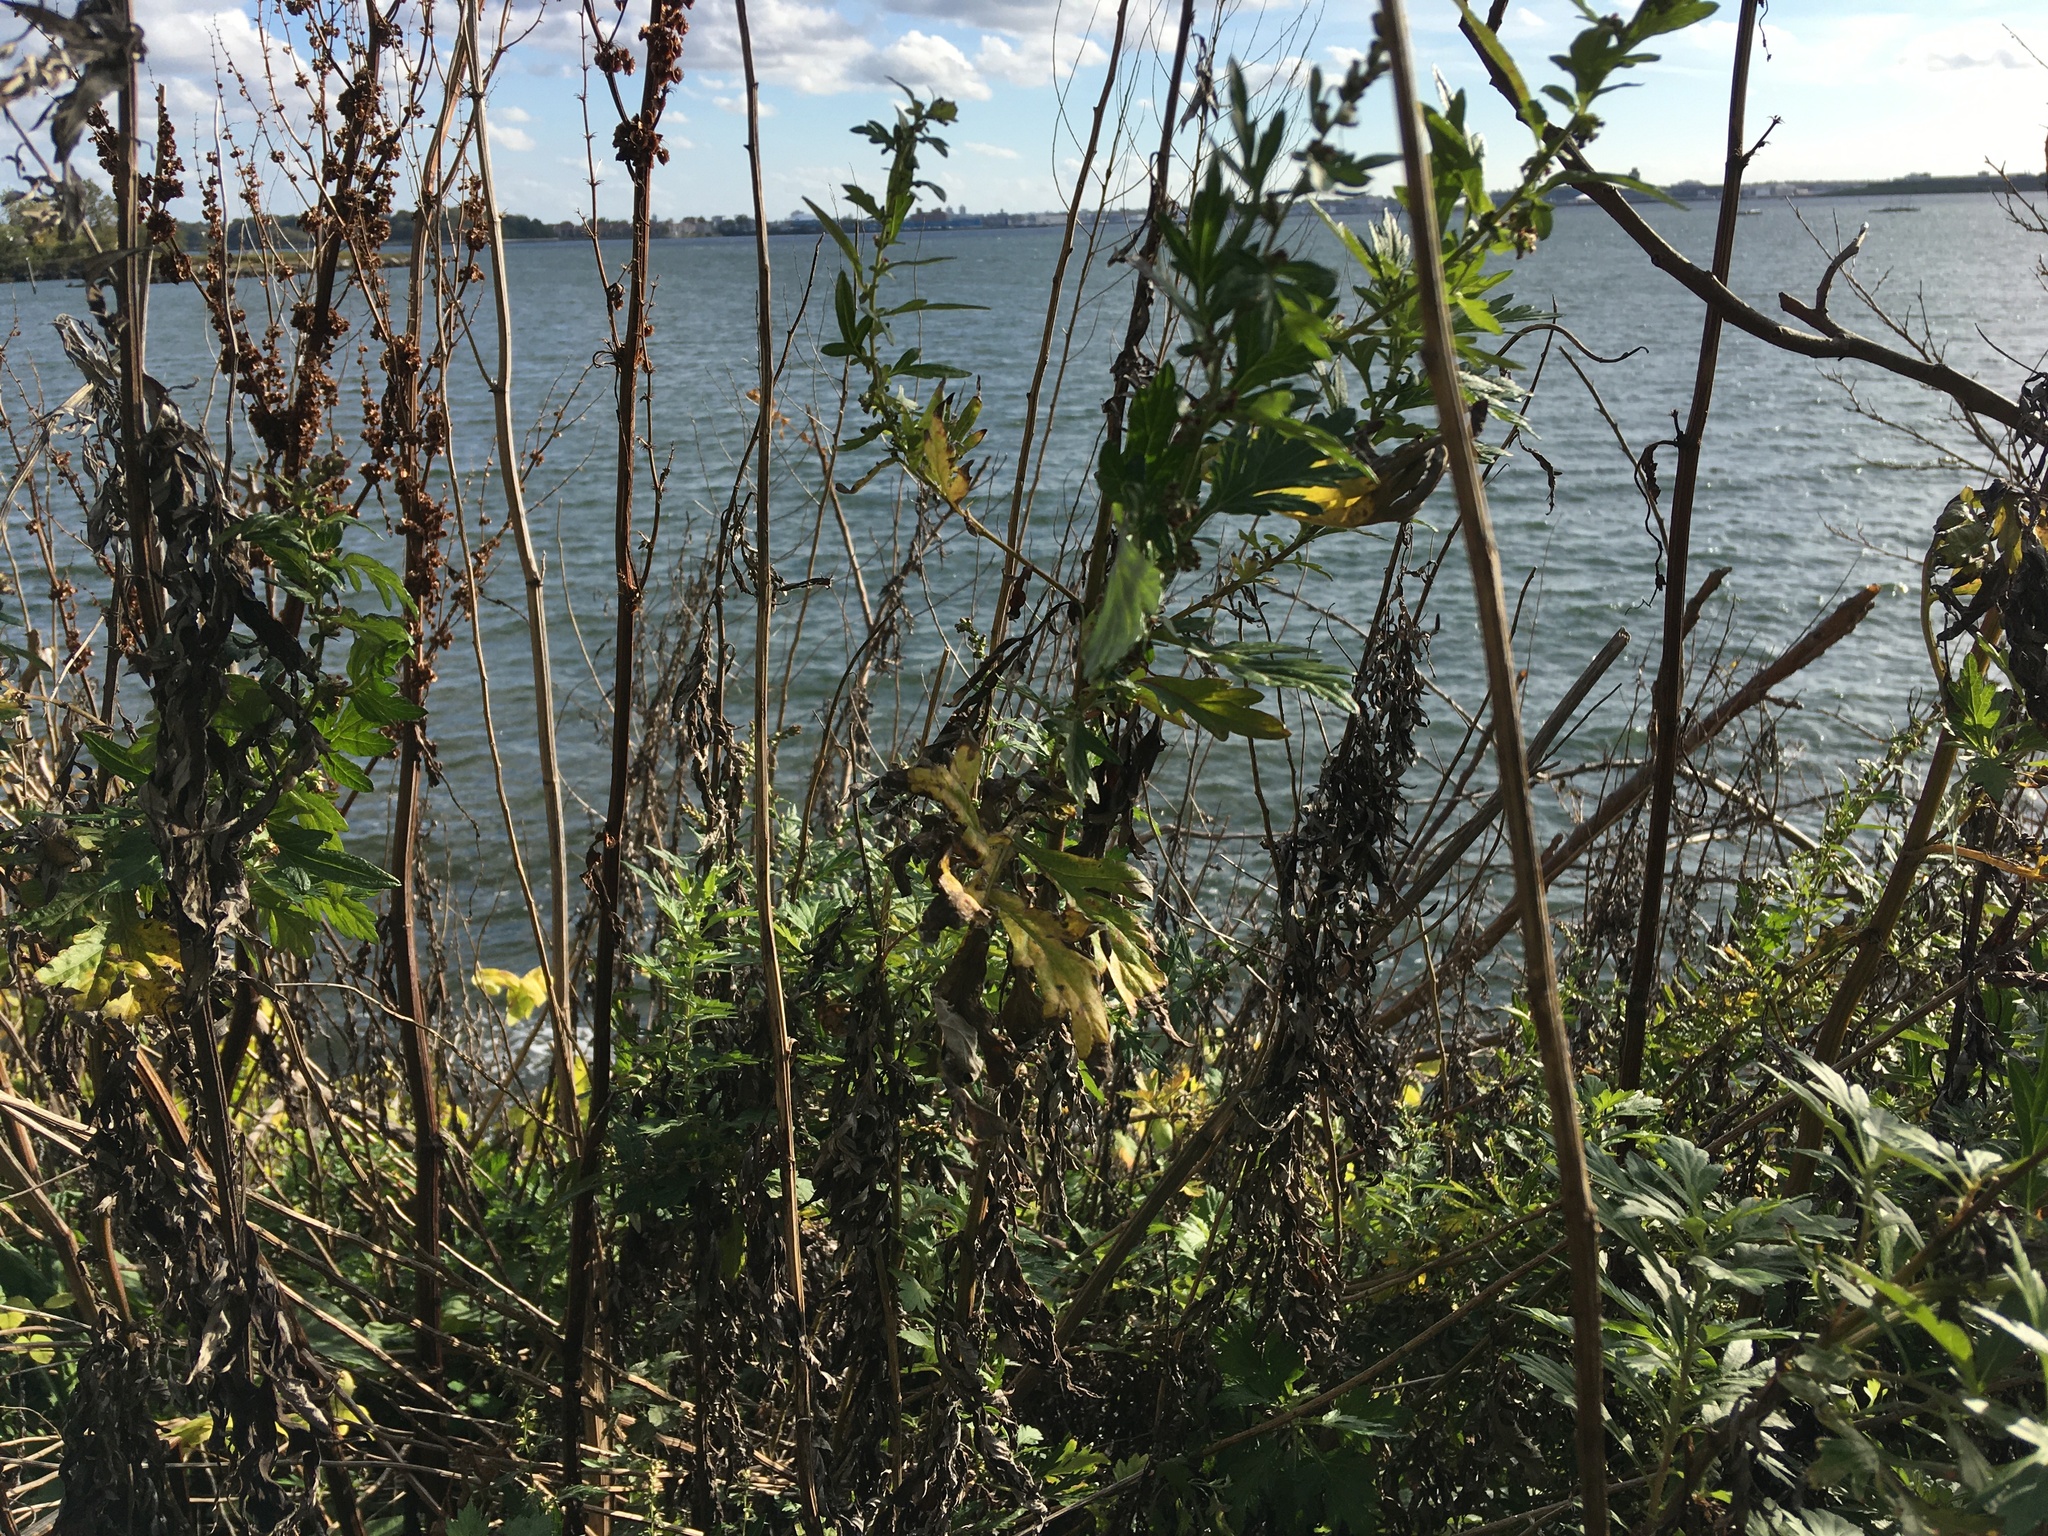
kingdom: Plantae
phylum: Tracheophyta
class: Magnoliopsida
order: Asterales
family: Asteraceae
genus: Artemisia
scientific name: Artemisia vulgaris
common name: Mugwort
